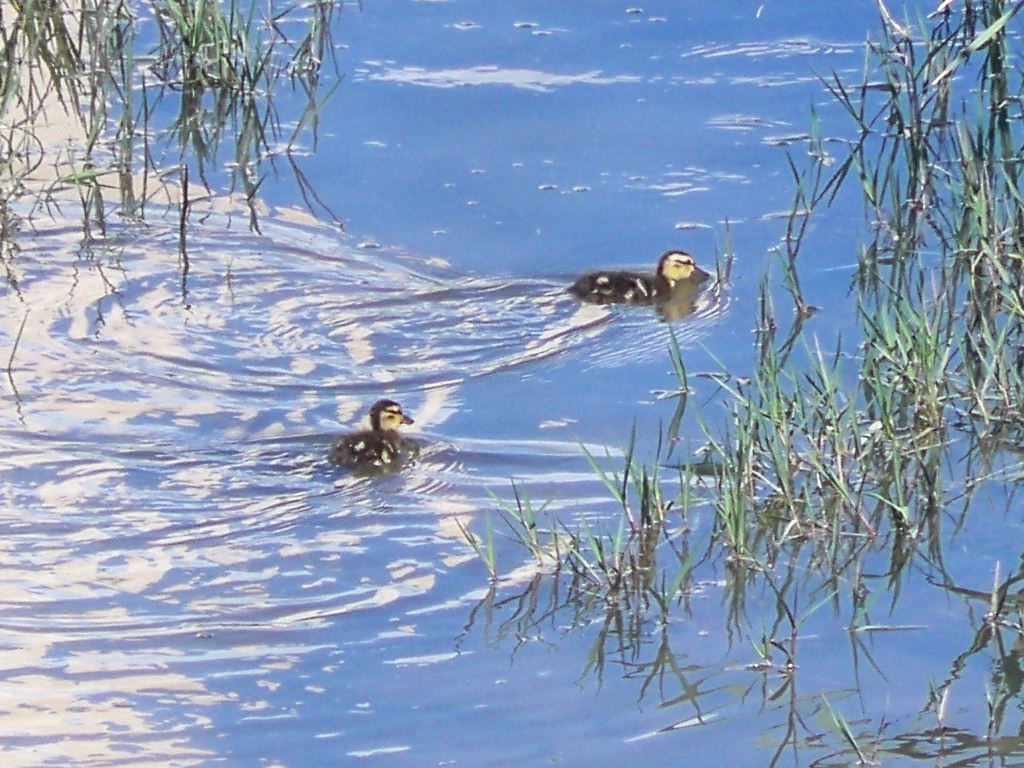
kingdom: Animalia
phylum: Chordata
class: Aves
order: Anseriformes
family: Anatidae
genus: Anas
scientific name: Anas platyrhynchos
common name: Mallard
